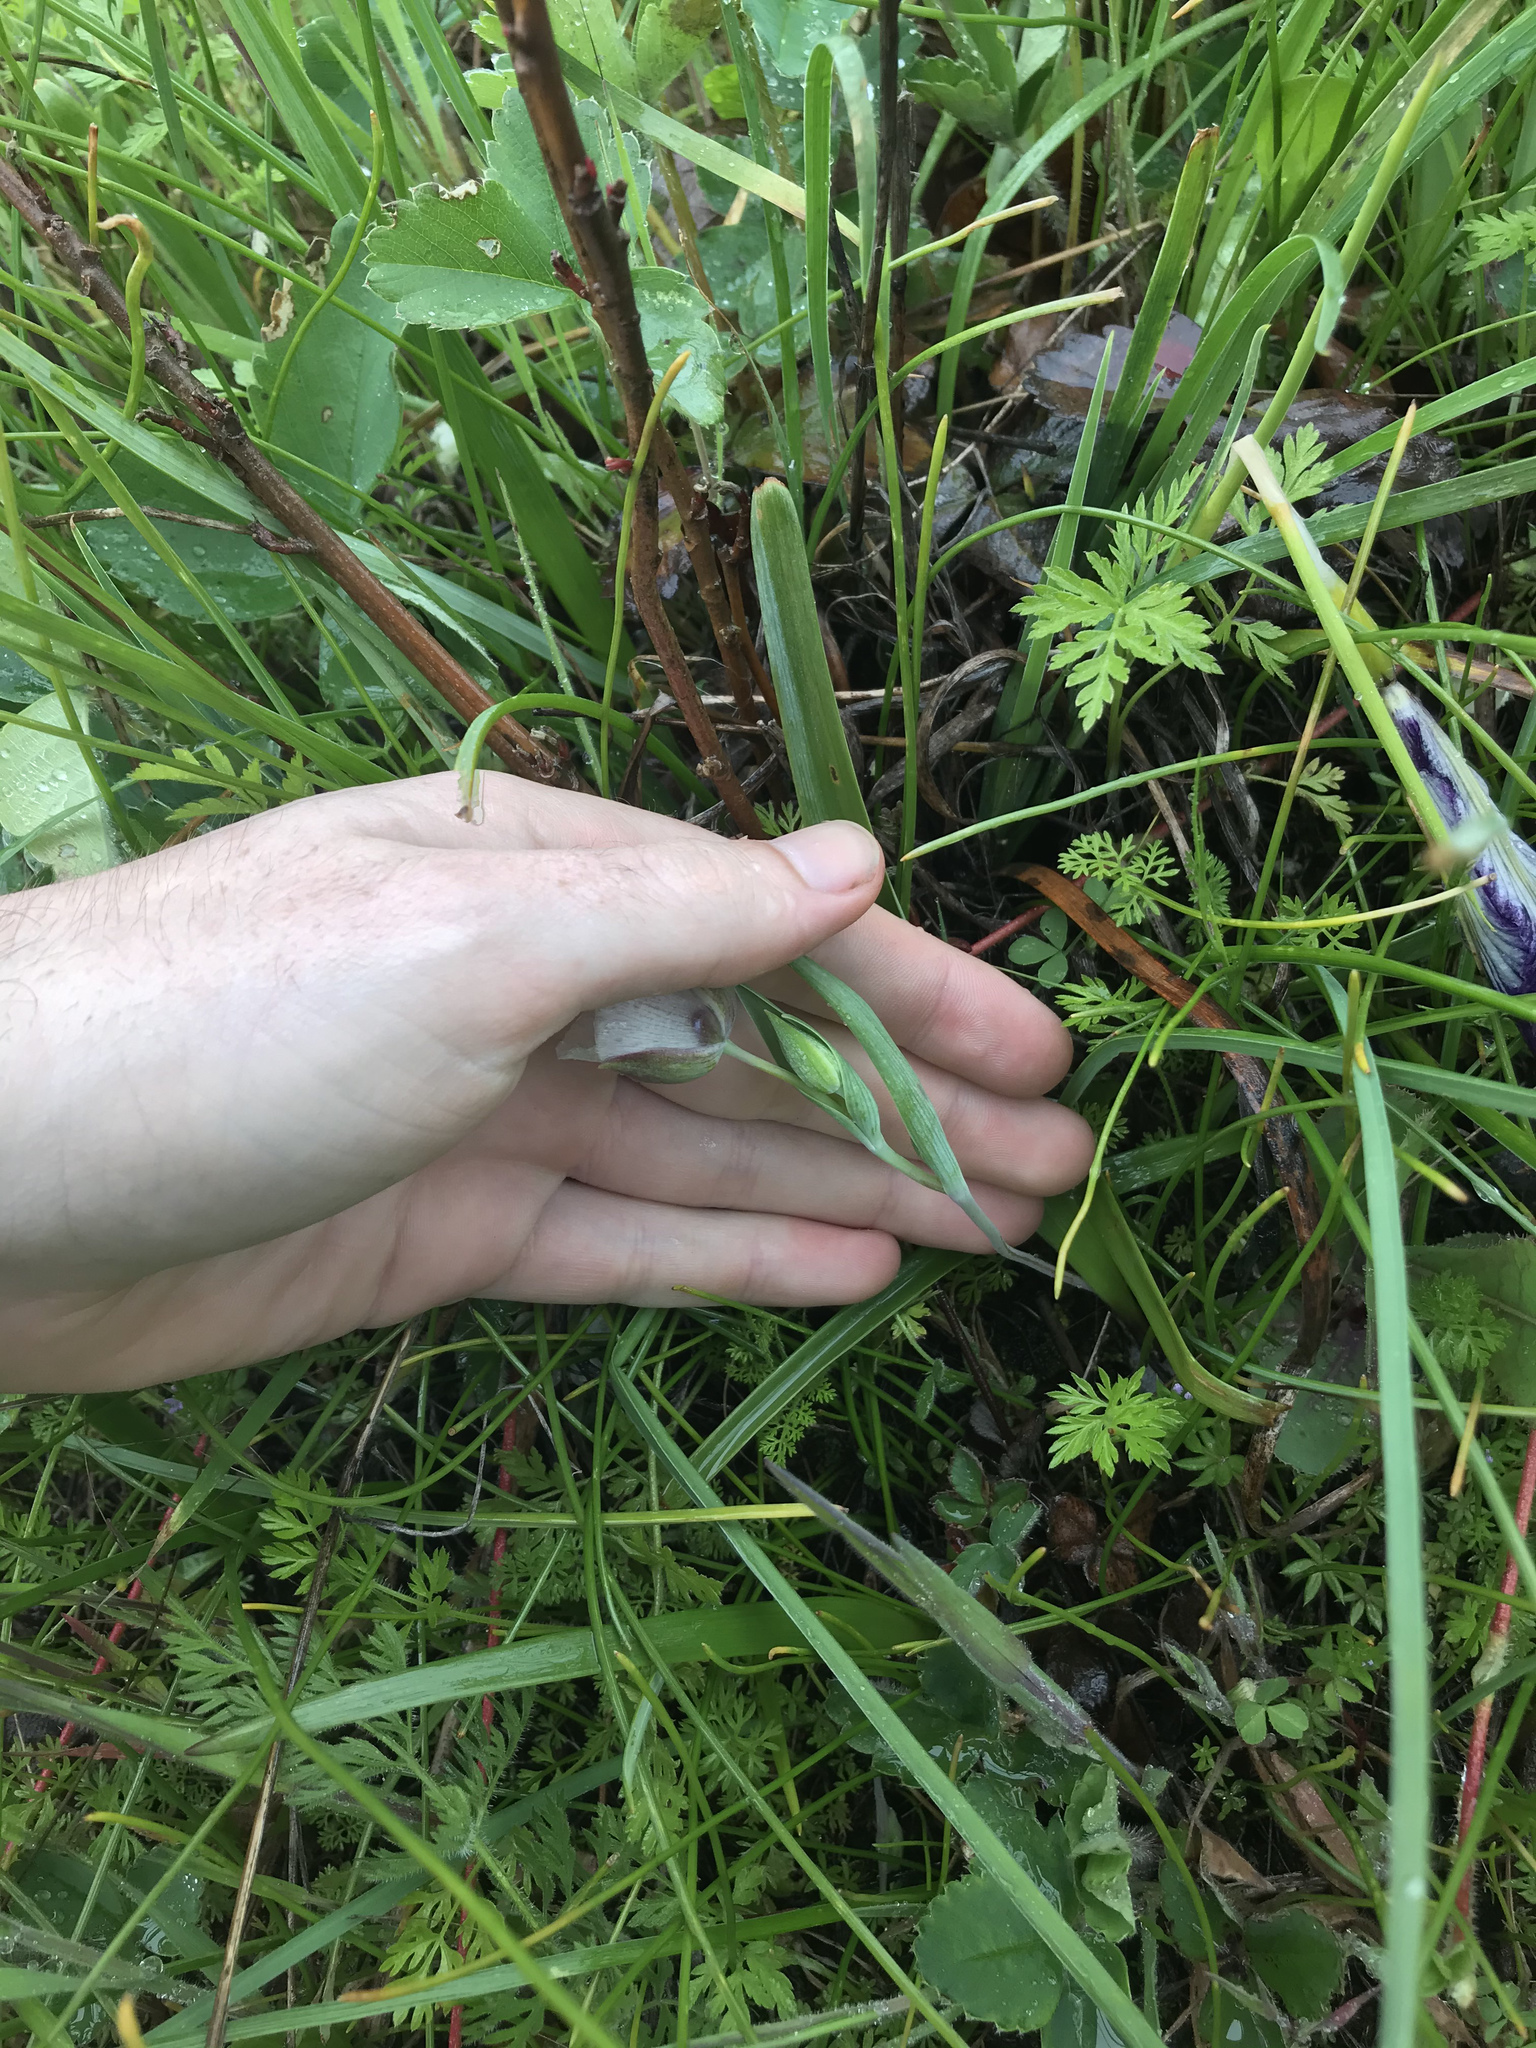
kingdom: Plantae
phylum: Tracheophyta
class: Liliopsida
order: Liliales
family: Liliaceae
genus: Calochortus
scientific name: Calochortus tolmiei
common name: Pussy-ears
